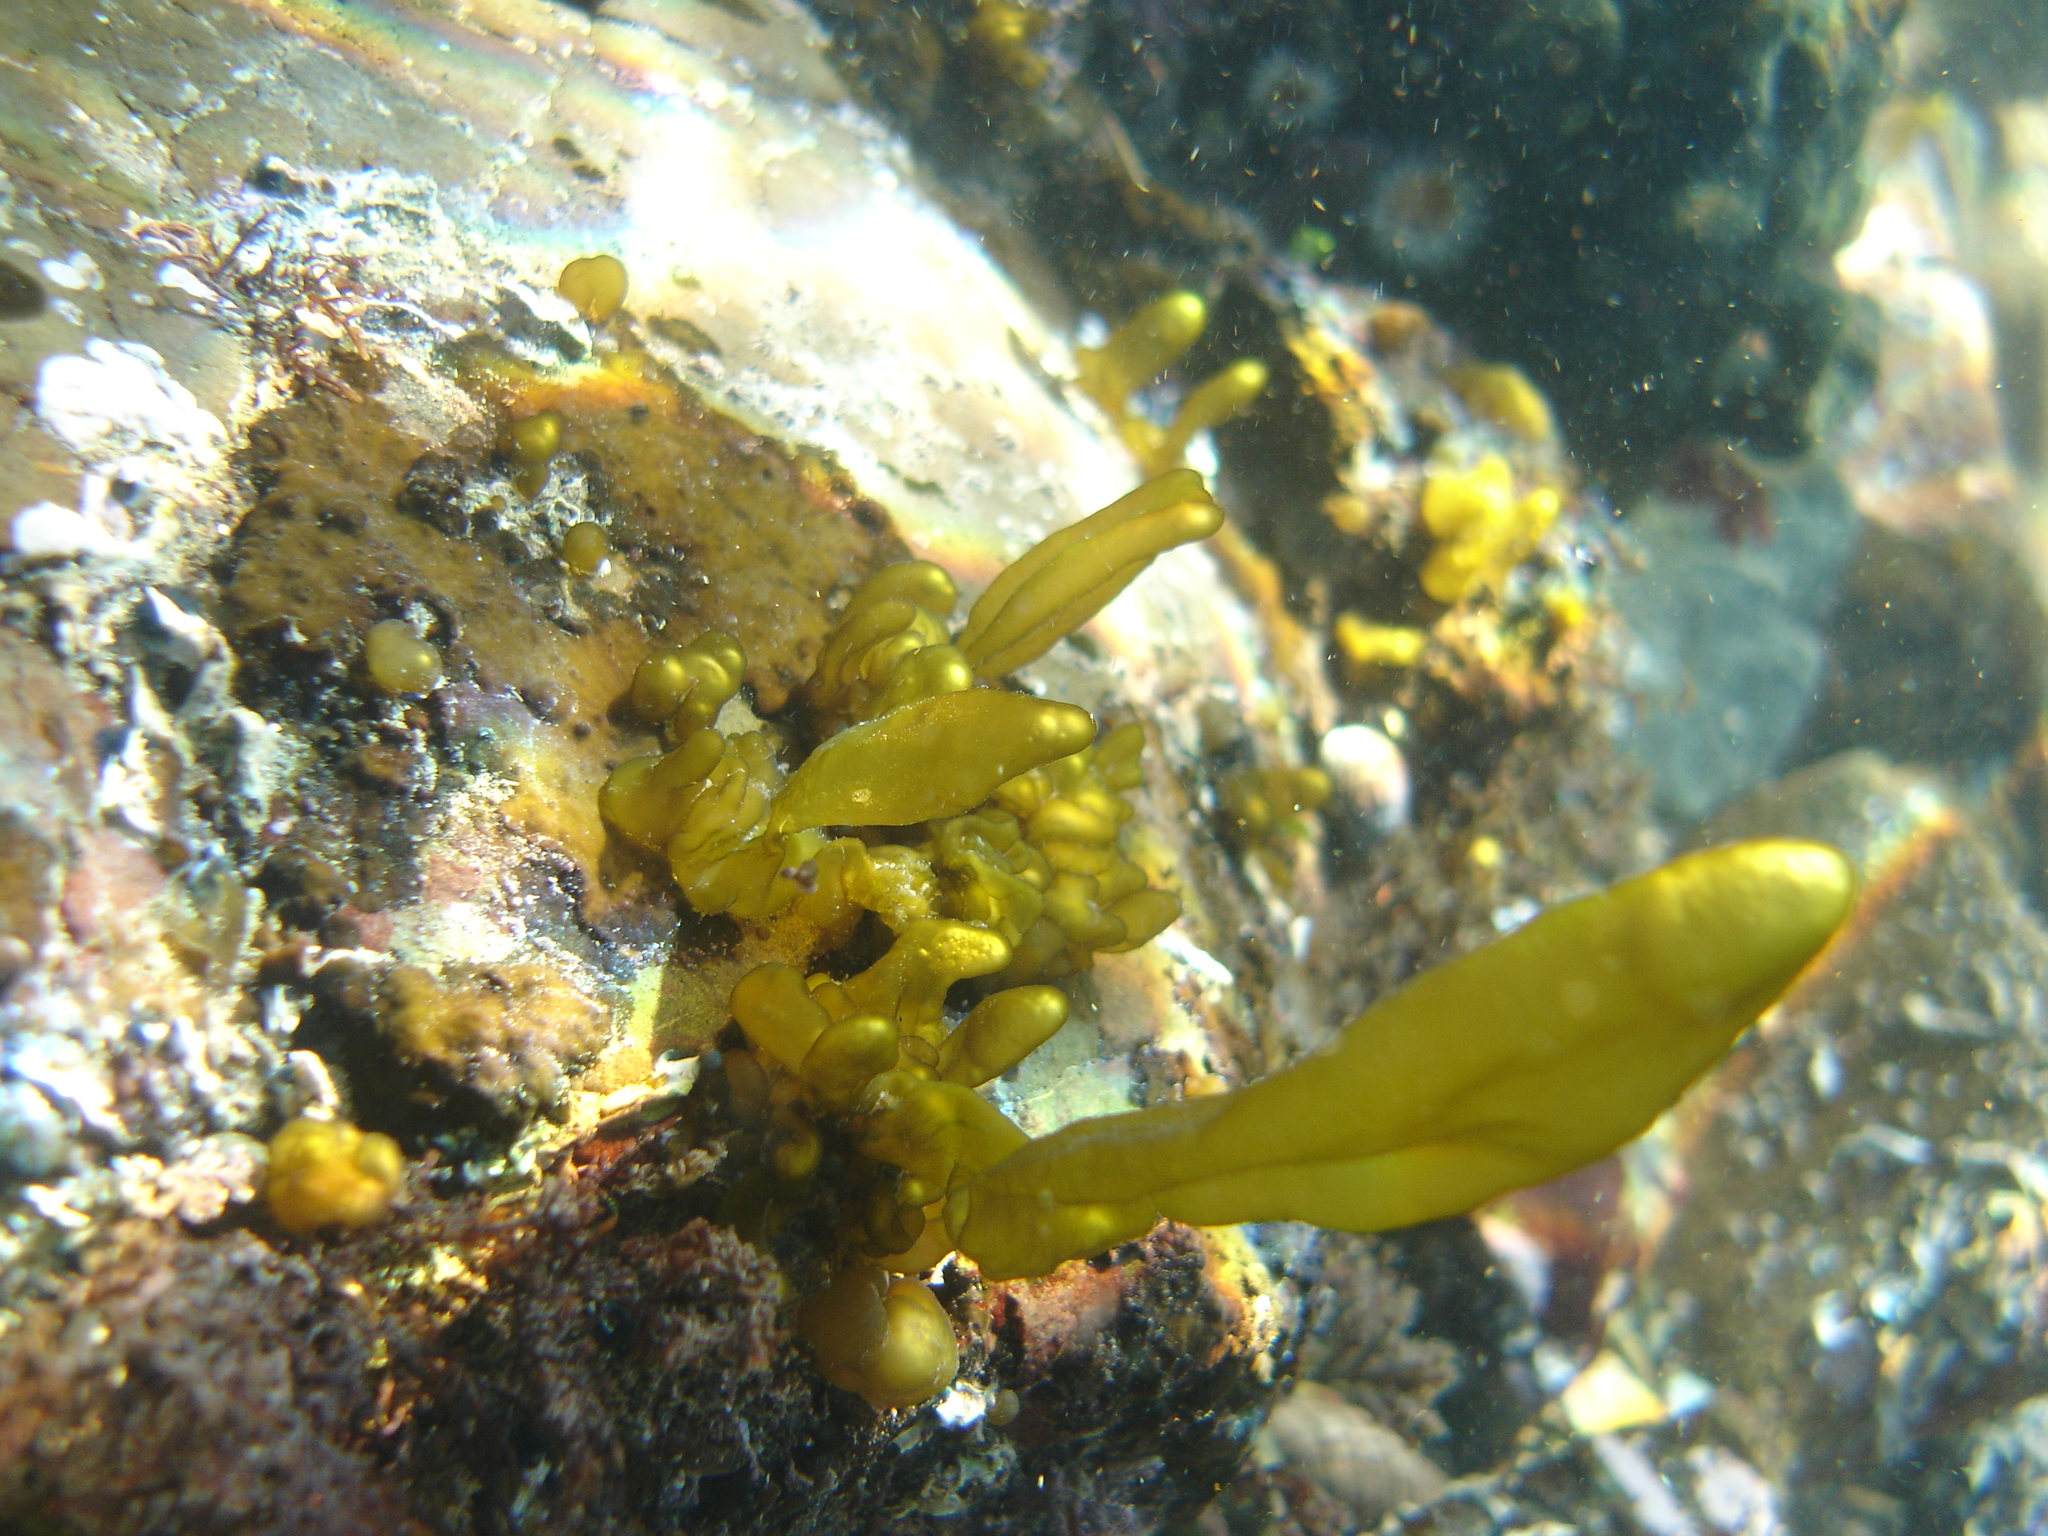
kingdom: Chromista
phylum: Ochrophyta
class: Phaeophyceae
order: Scytosiphonales
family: Scytosiphonaceae
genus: Dactylosiphon
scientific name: Dactylosiphon bullosus
